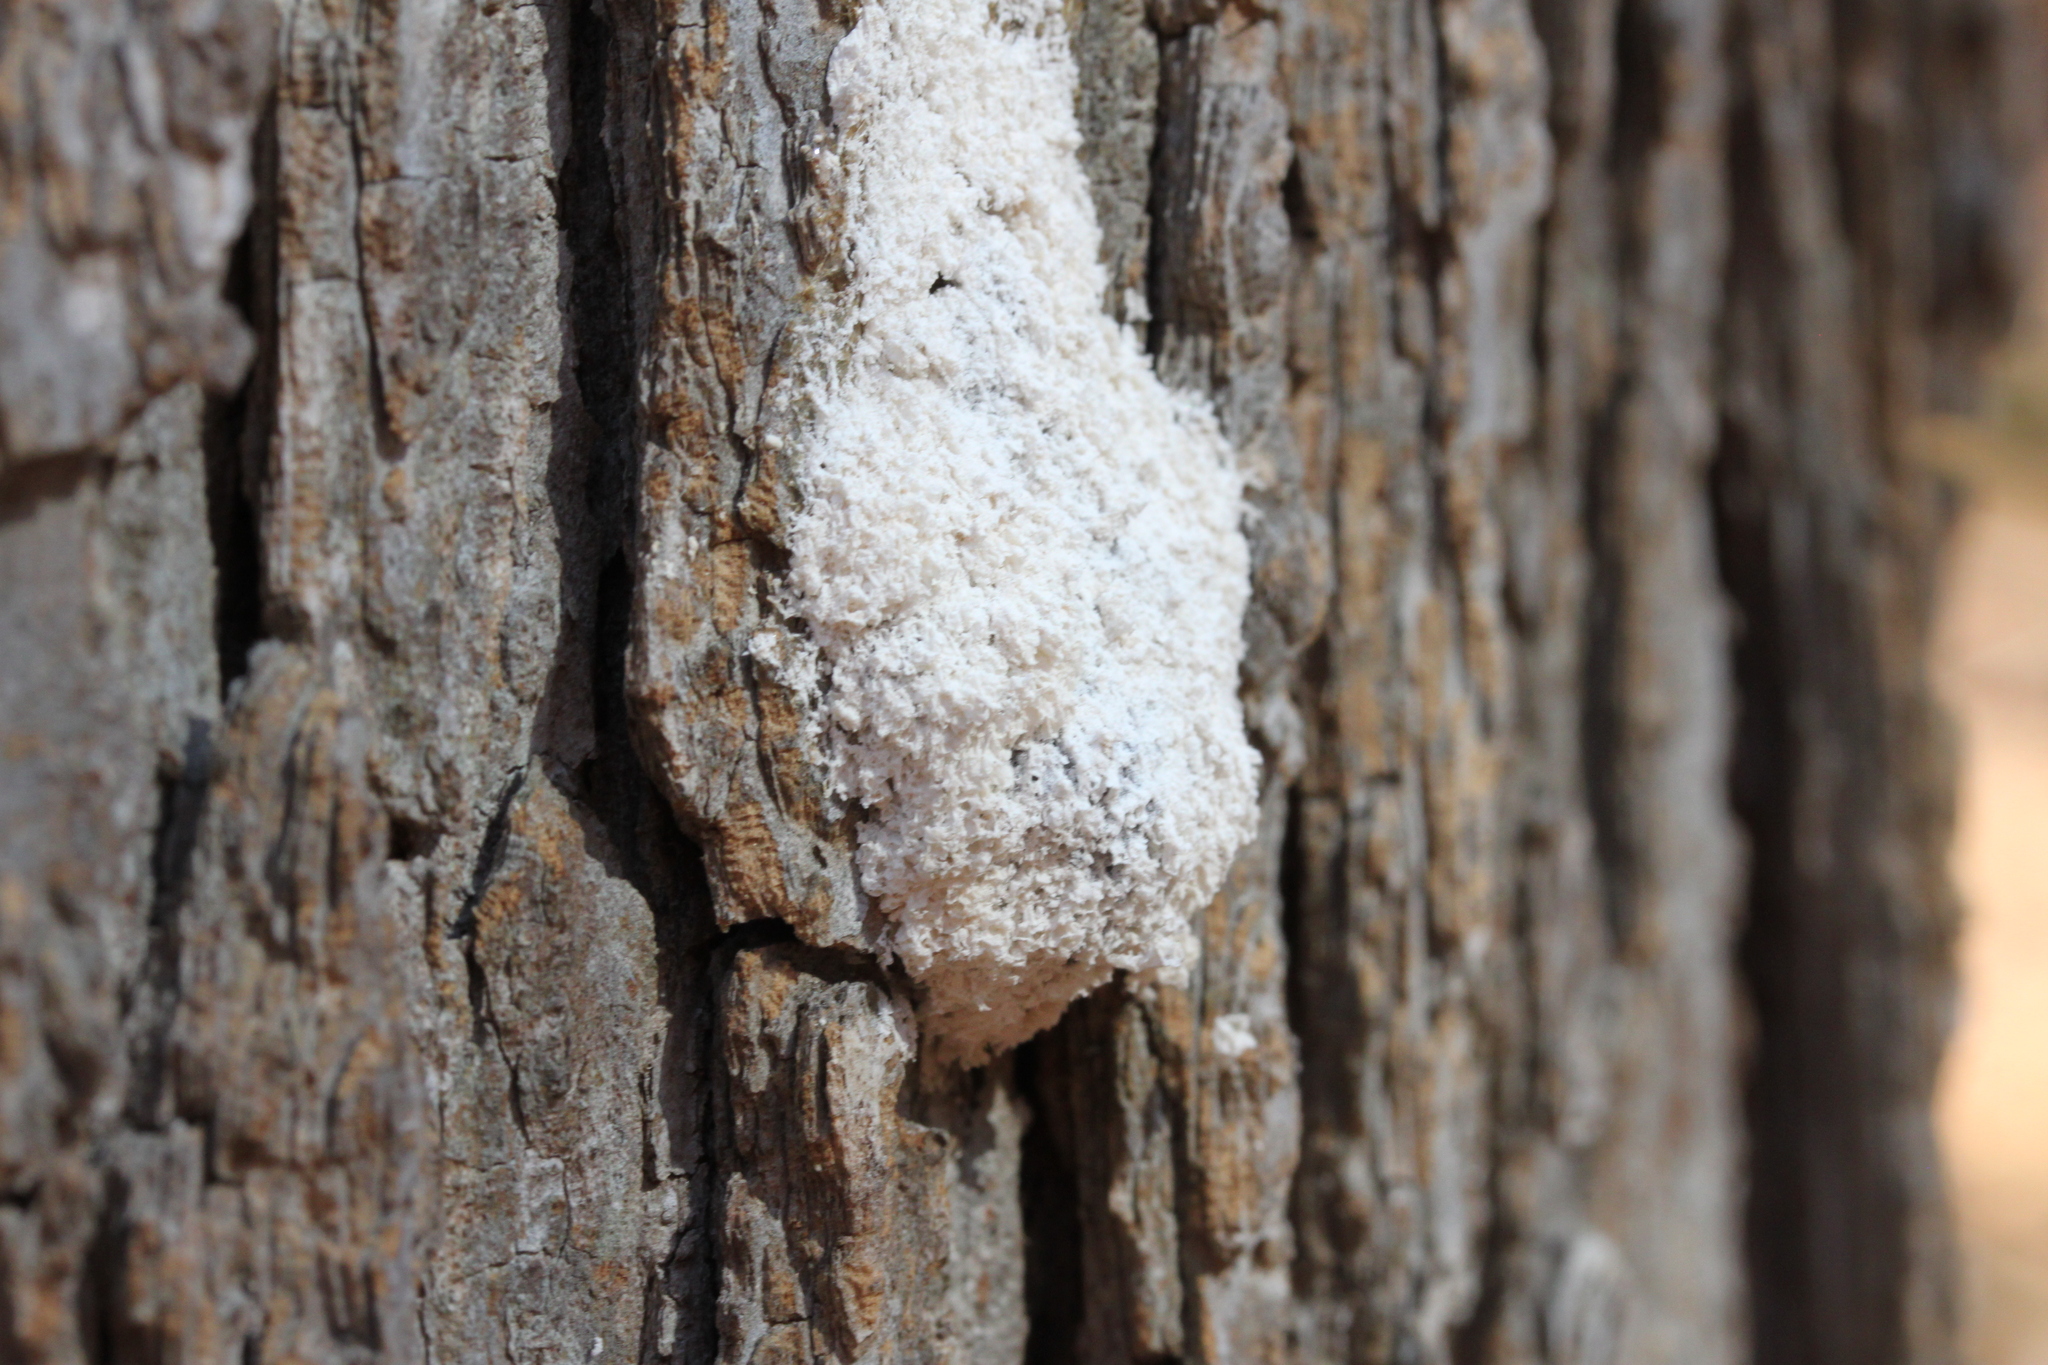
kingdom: Protozoa
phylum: Mycetozoa
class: Myxomycetes
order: Physarales
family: Physaraceae
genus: Didymium
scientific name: Didymium
